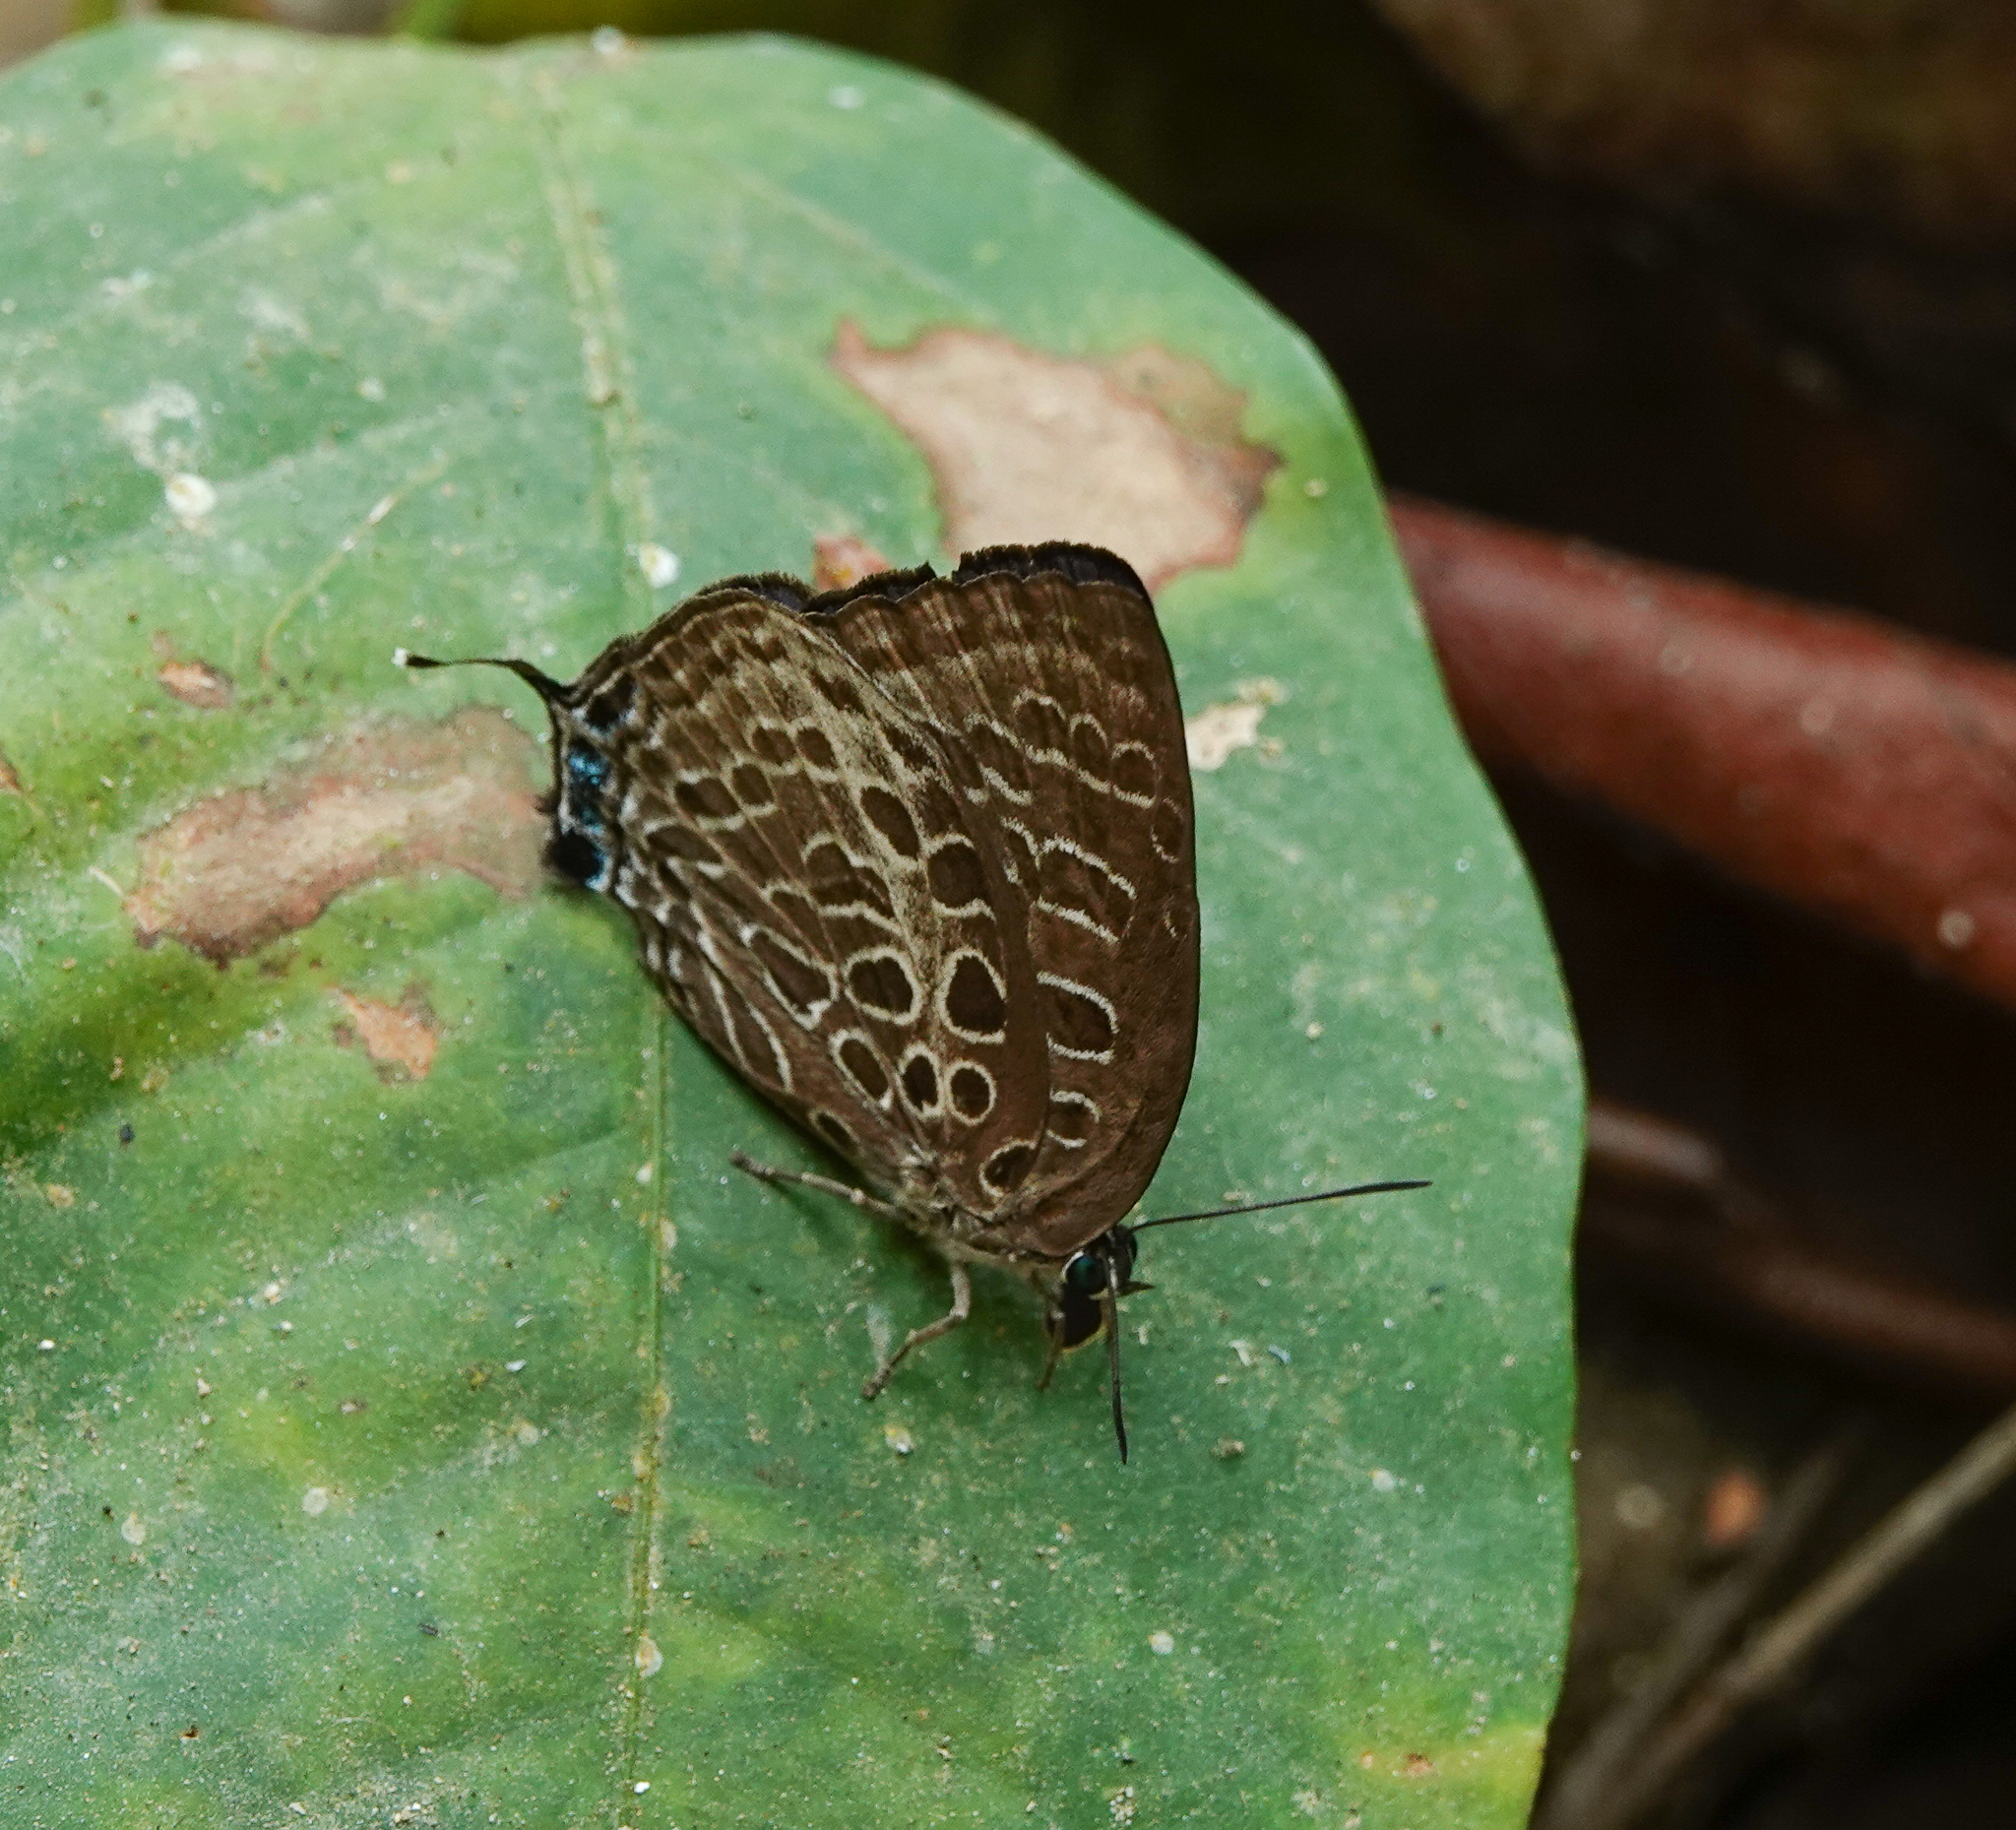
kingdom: Animalia
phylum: Arthropoda
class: Insecta
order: Lepidoptera
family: Lycaenidae
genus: Arhopala
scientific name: Arhopala dispar
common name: Frosted oakblue
